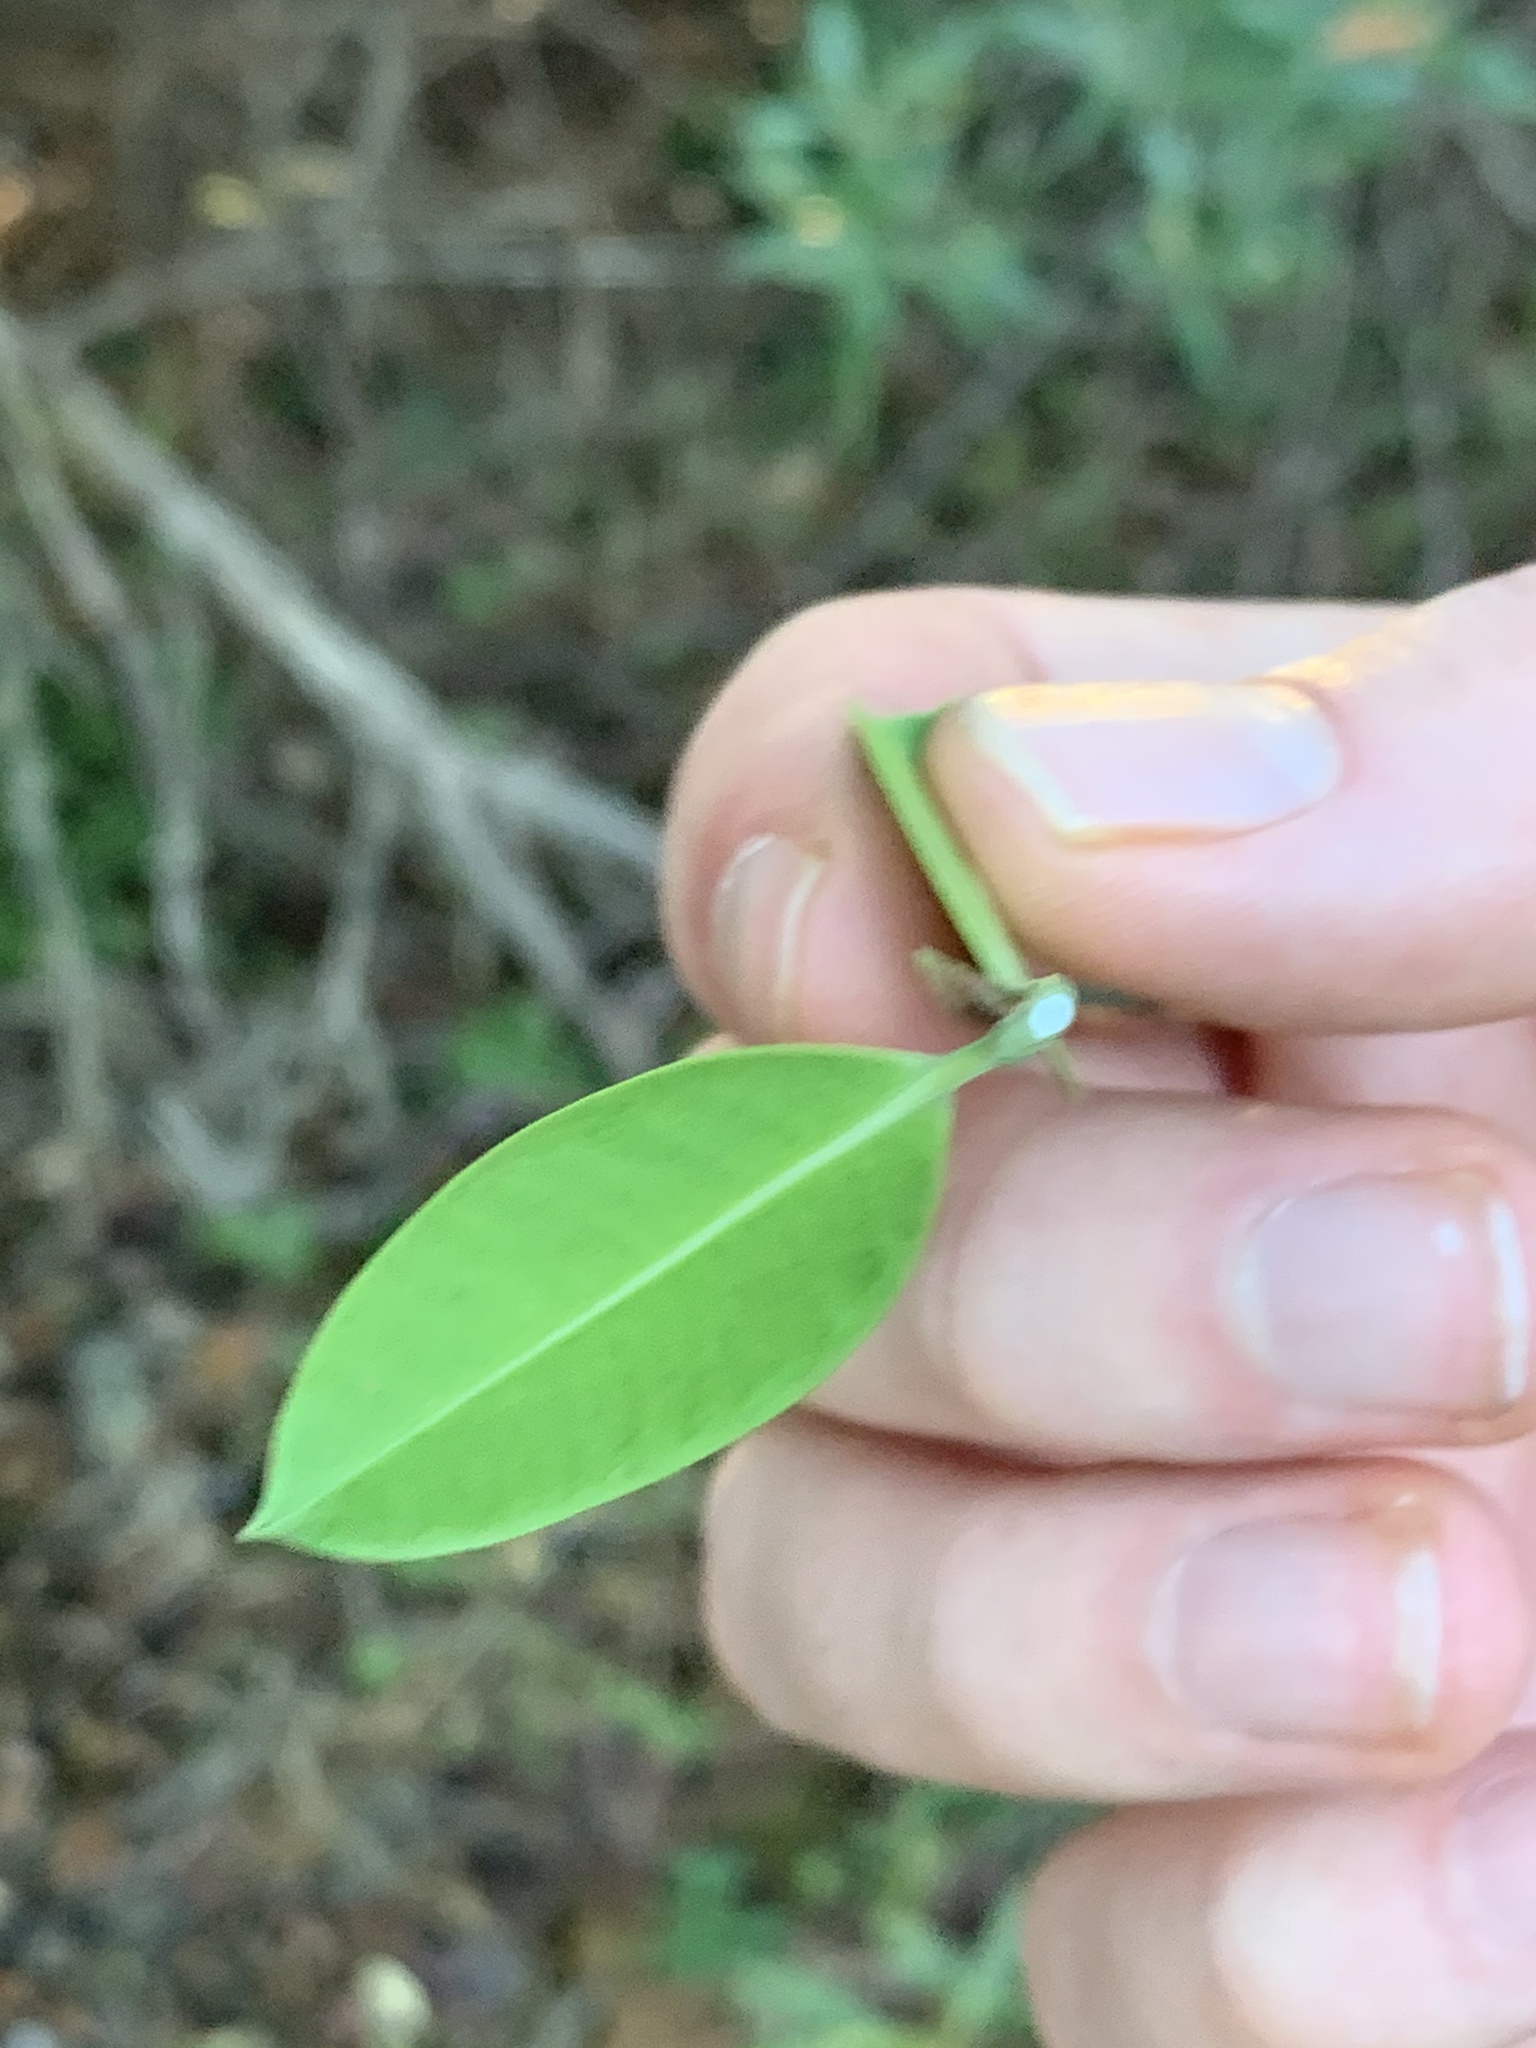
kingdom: Plantae
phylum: Tracheophyta
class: Magnoliopsida
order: Gentianales
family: Apocynaceae
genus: Secamone
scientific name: Secamone alpini
